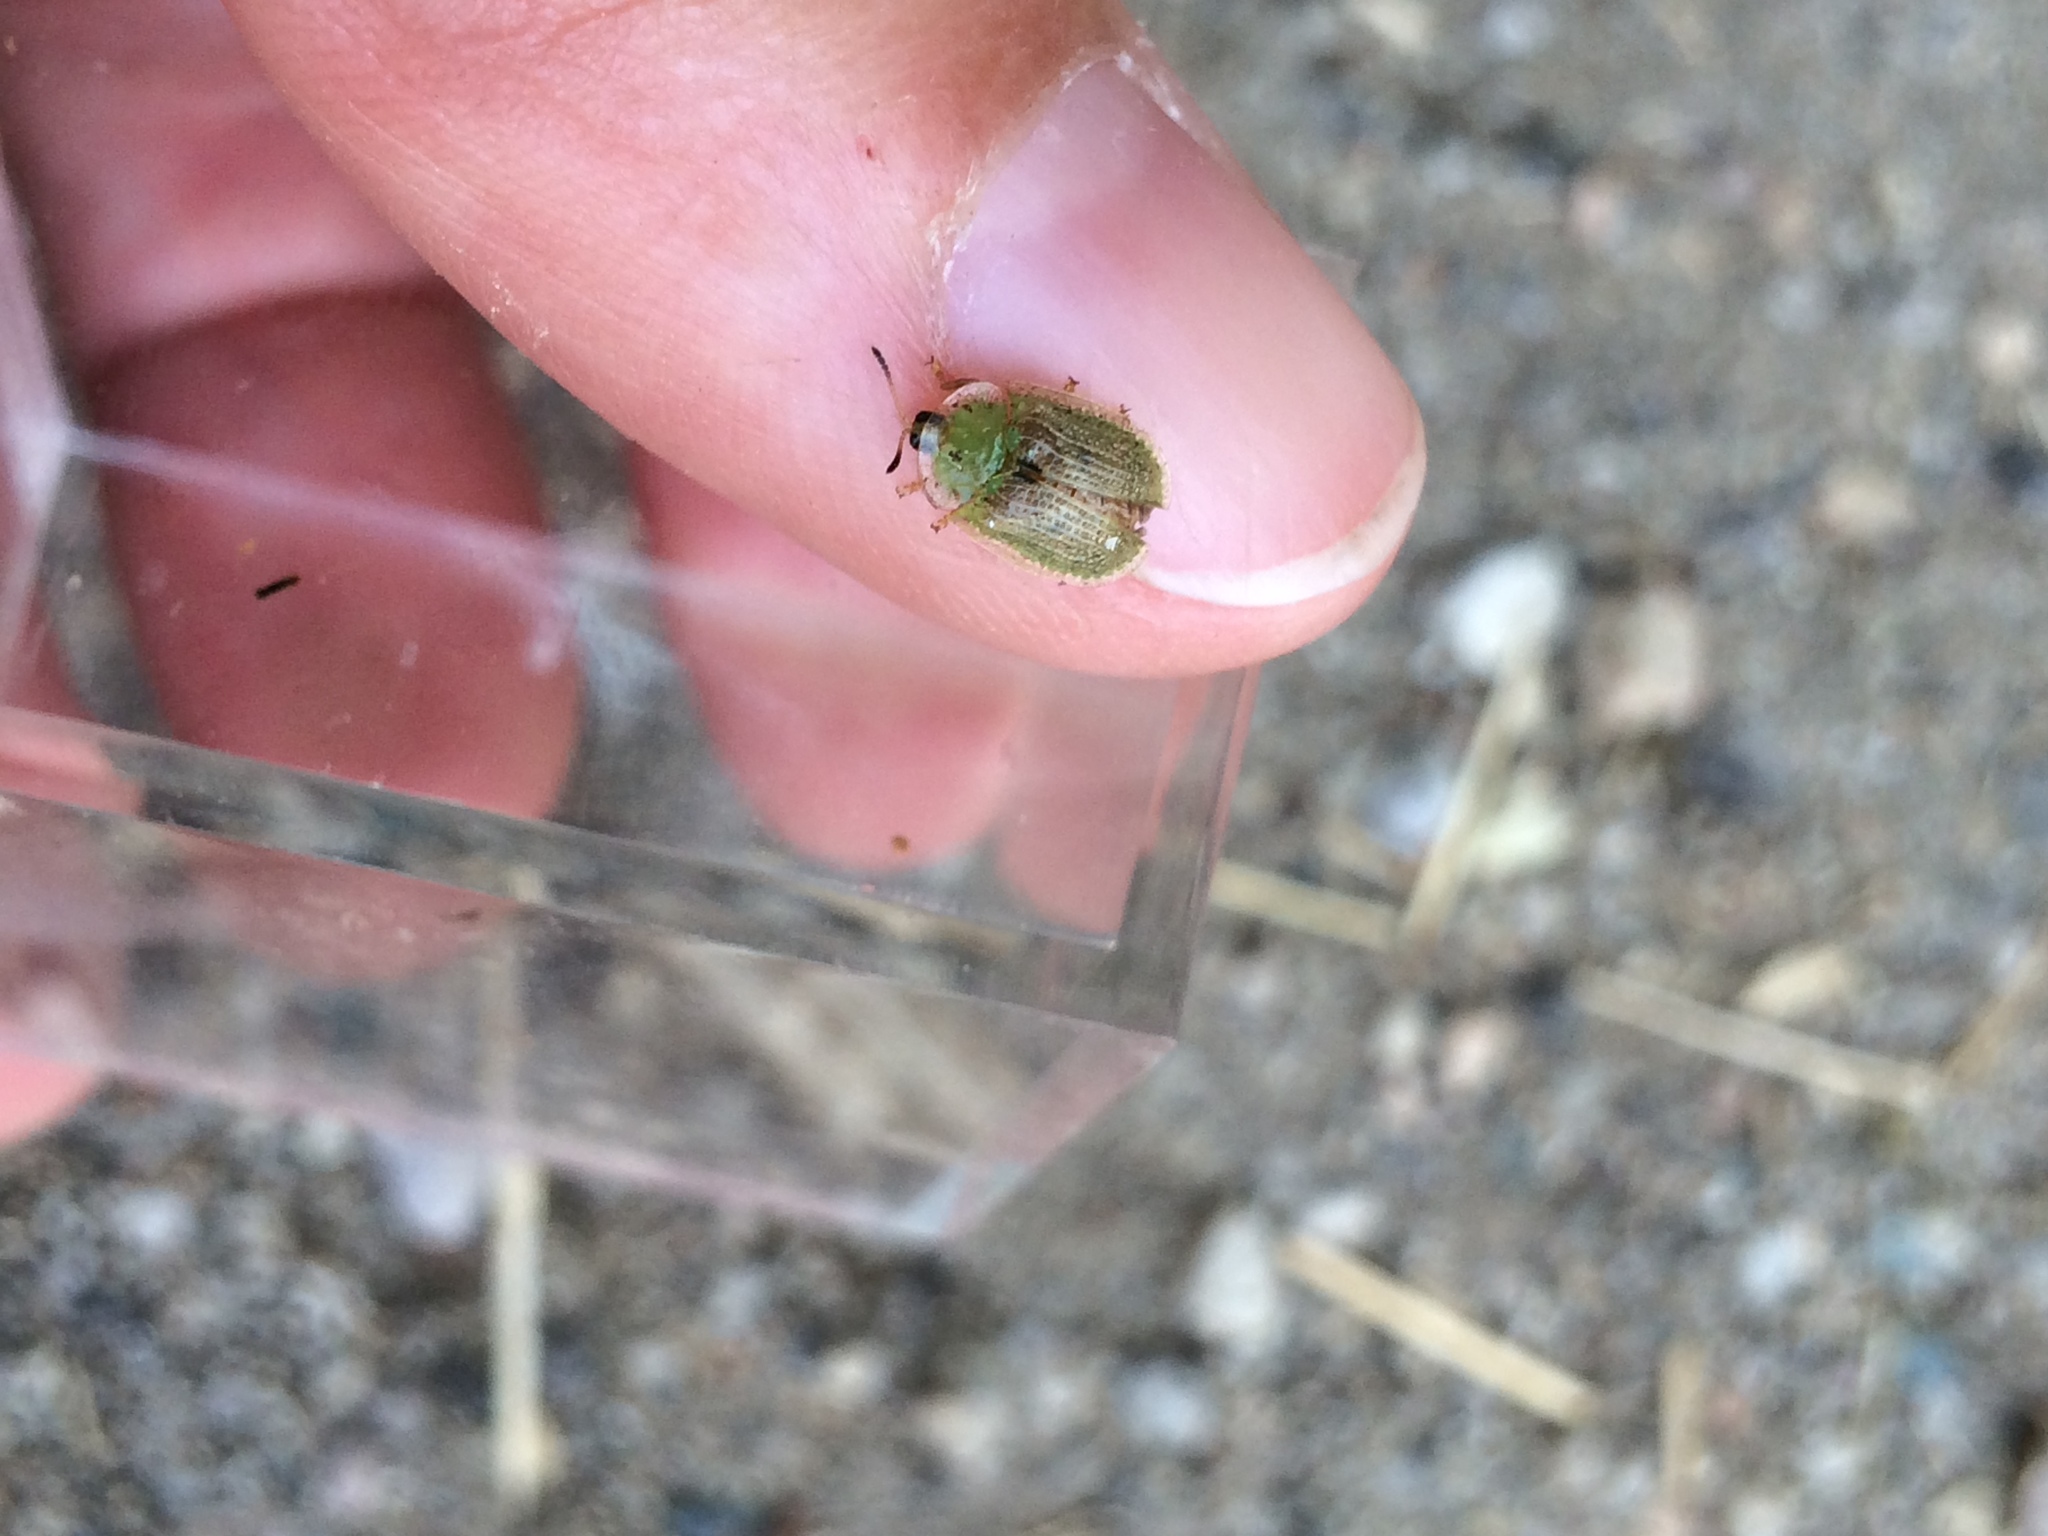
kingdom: Animalia
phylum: Arthropoda
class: Insecta
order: Coleoptera
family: Chrysomelidae
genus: Gratiana
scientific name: Gratiana pallidula
